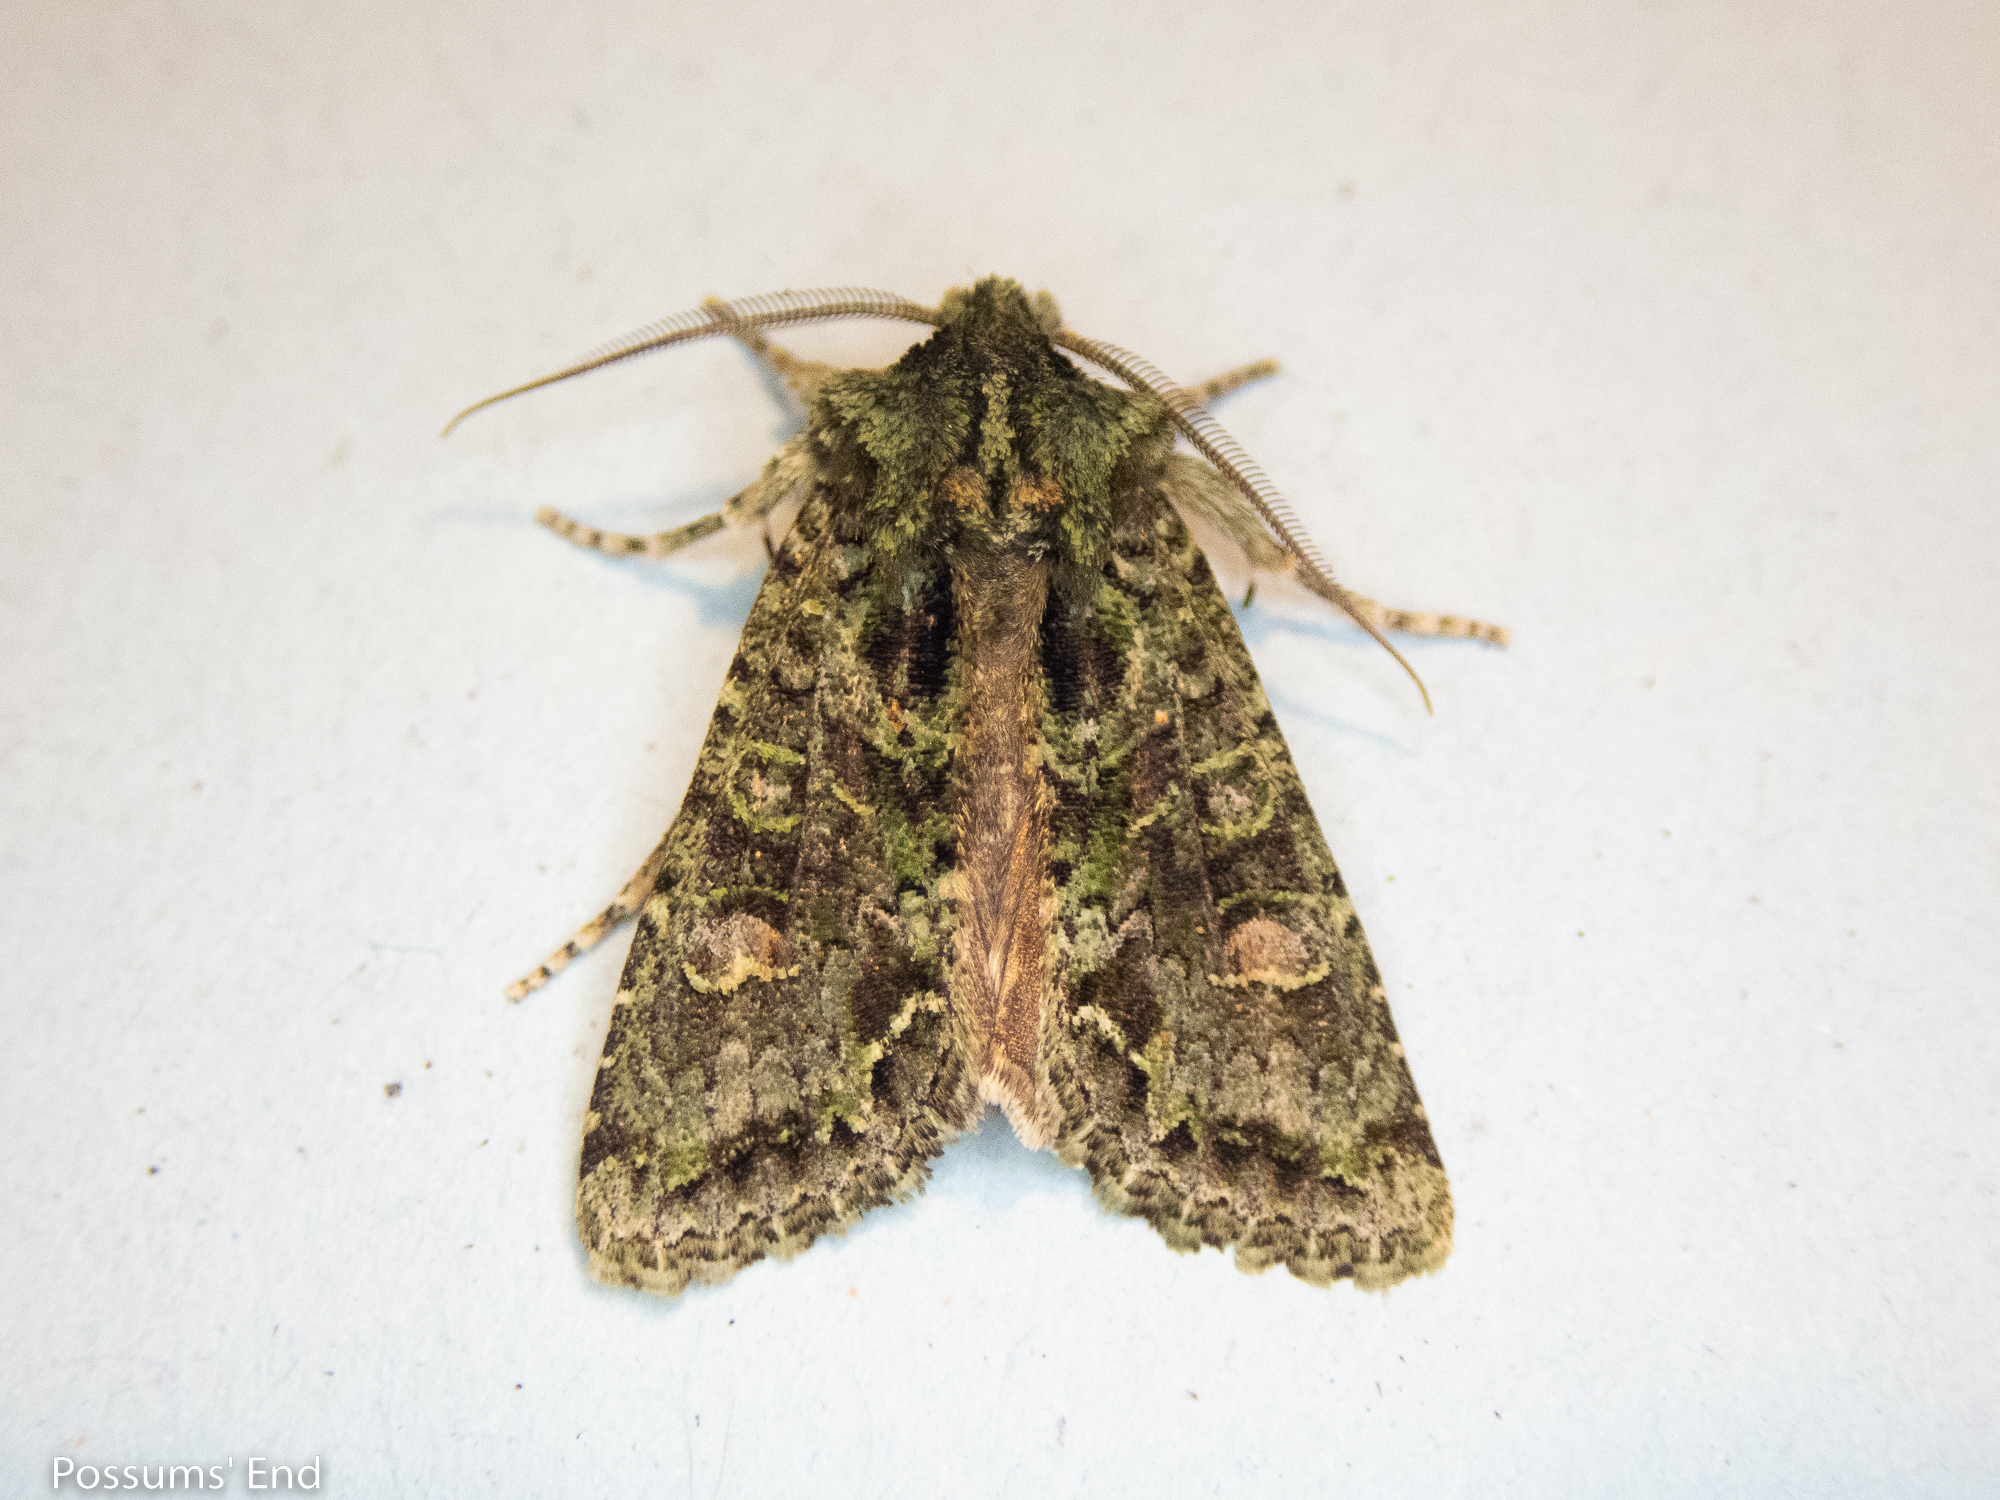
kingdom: Animalia
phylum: Arthropoda
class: Insecta
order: Lepidoptera
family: Noctuidae
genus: Ichneutica
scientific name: Ichneutica
